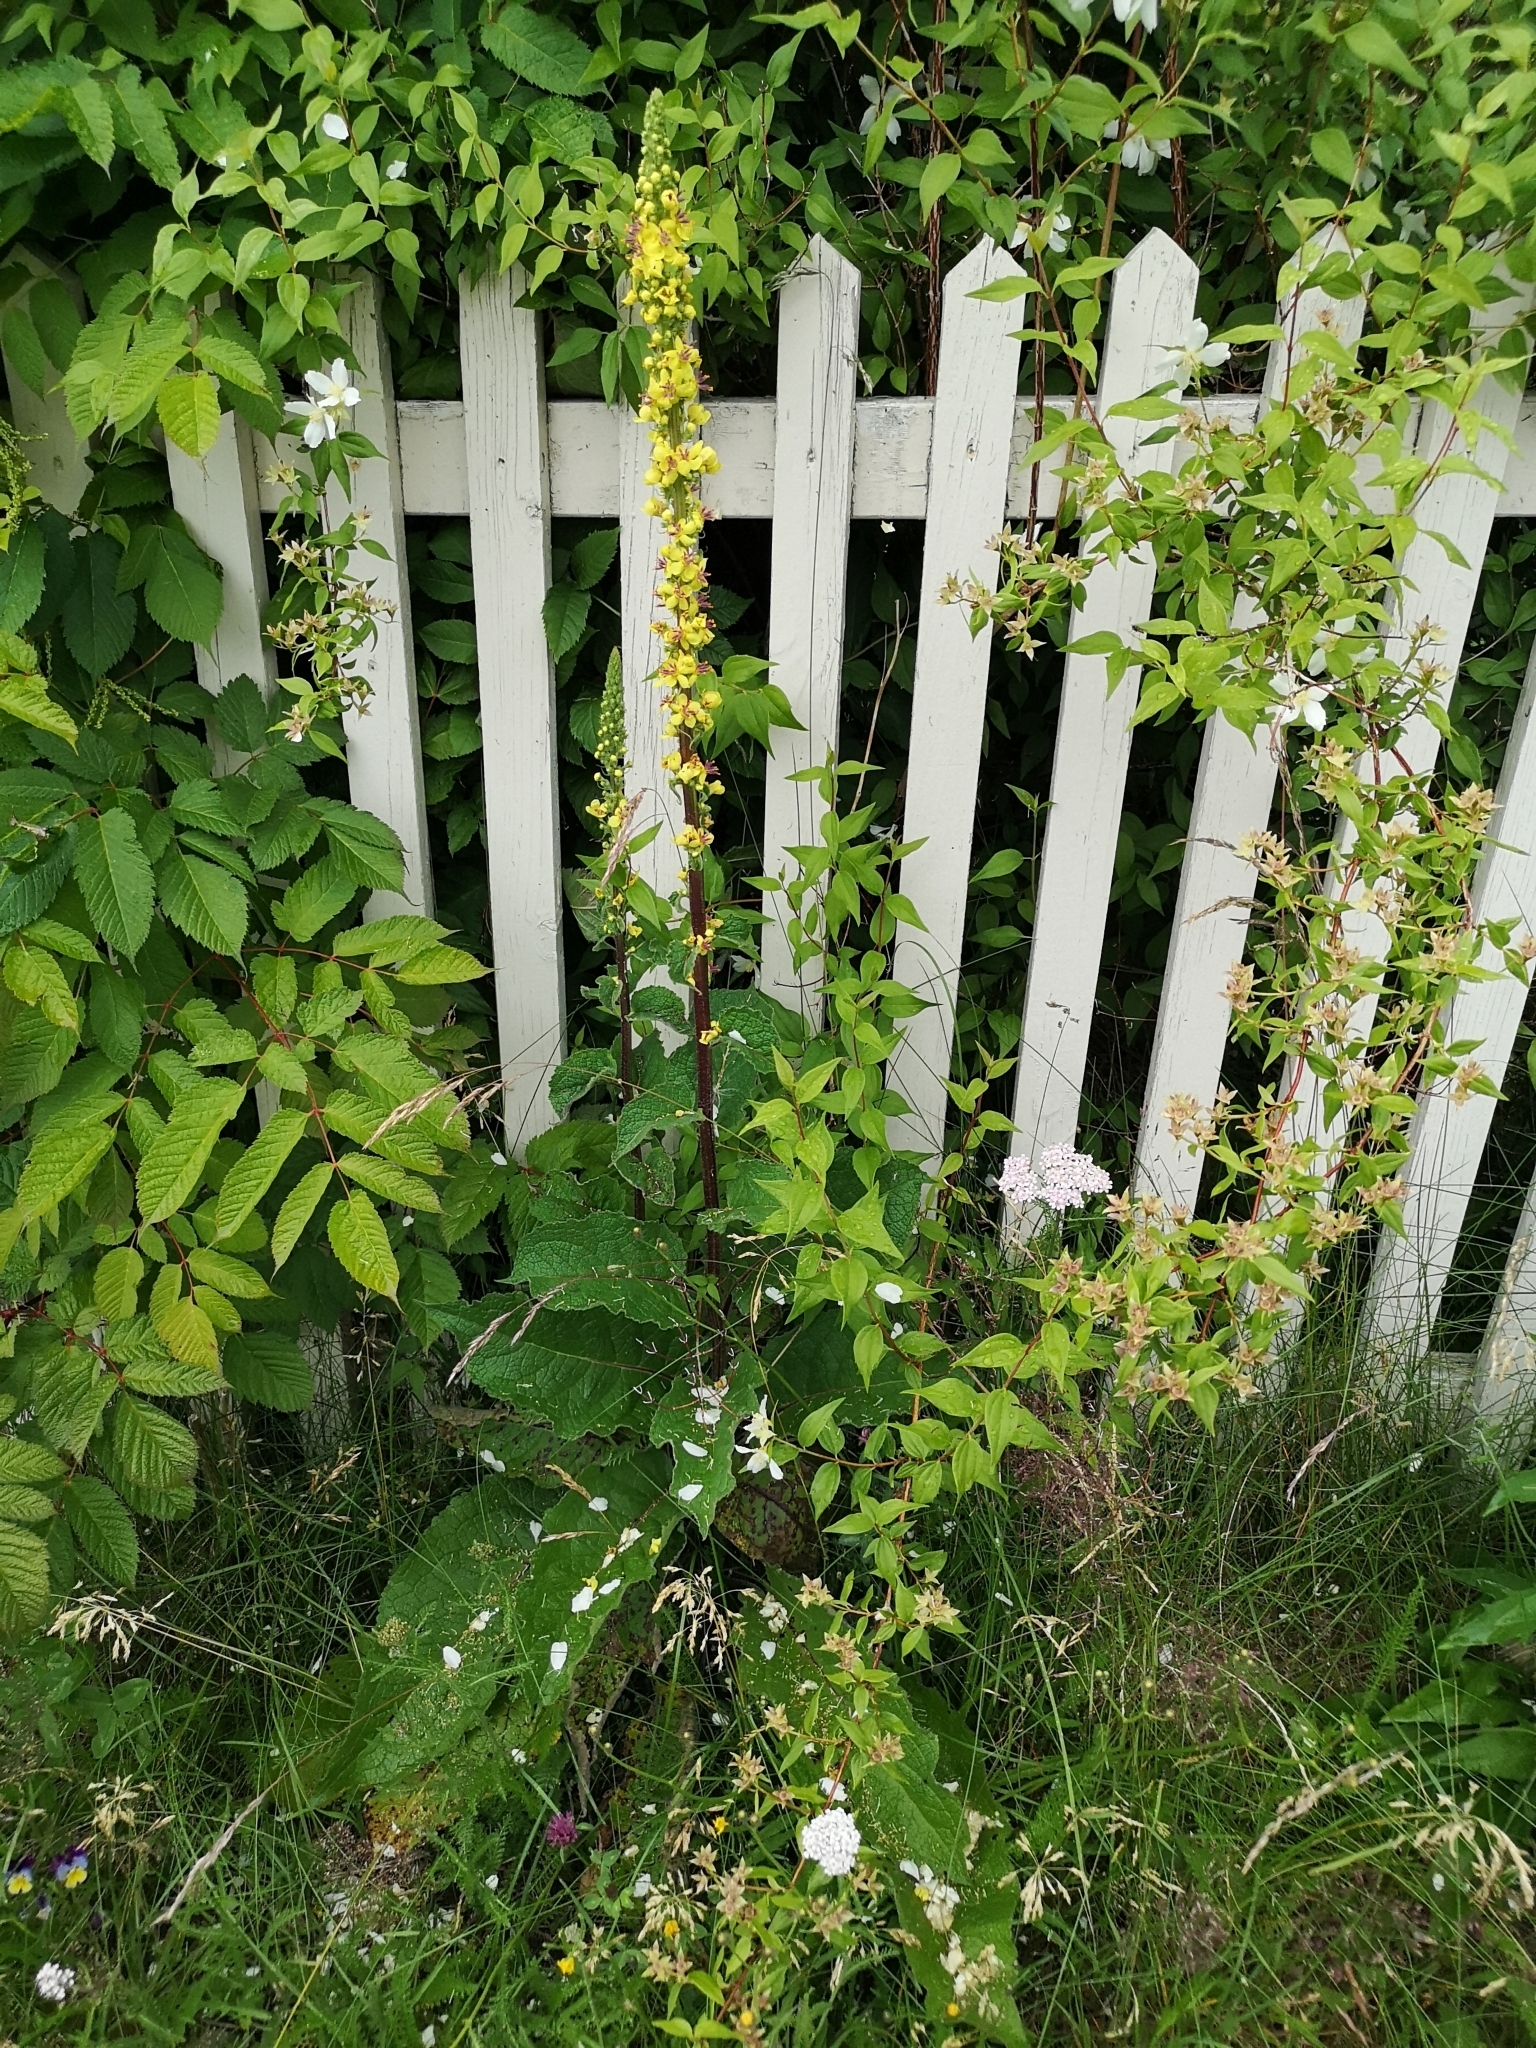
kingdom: Plantae
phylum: Tracheophyta
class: Magnoliopsida
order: Lamiales
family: Scrophulariaceae
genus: Verbascum
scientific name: Verbascum nigrum
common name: Dark mullein
